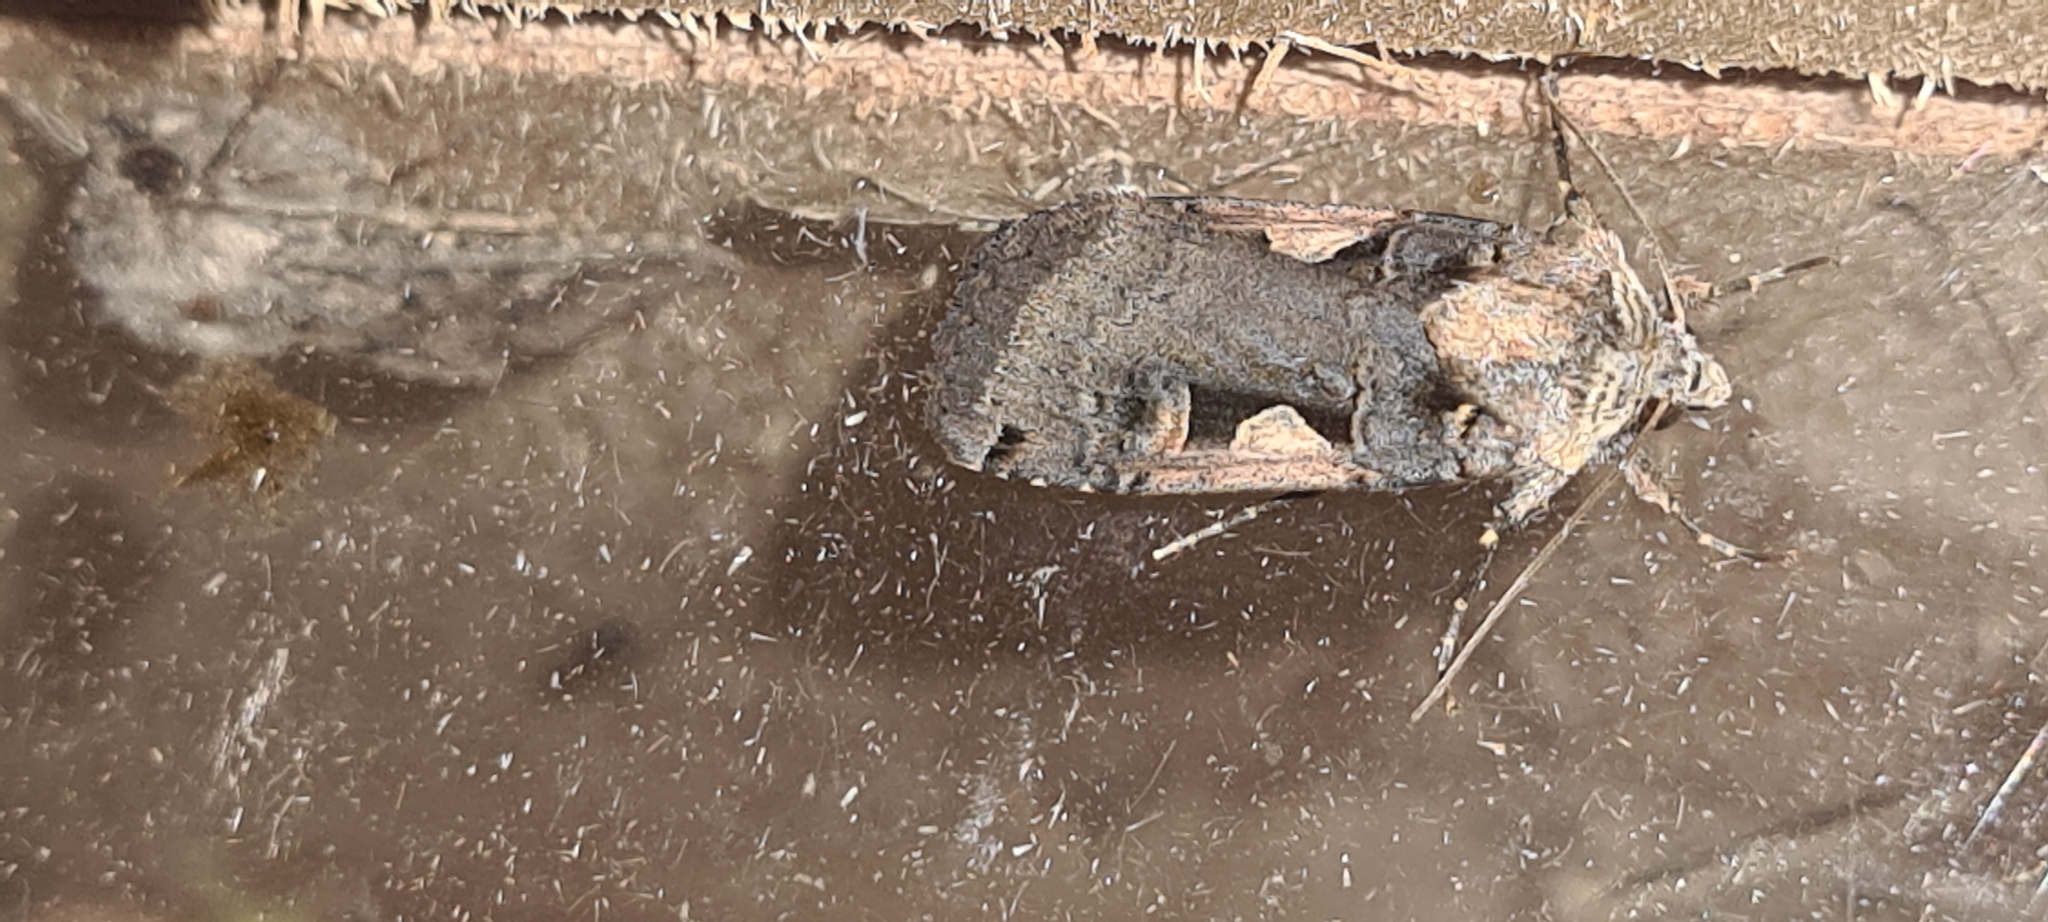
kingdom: Animalia
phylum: Arthropoda
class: Insecta
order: Lepidoptera
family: Noctuidae
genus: Xestia
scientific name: Xestia c-nigrum
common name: Setaceous hebrew character
